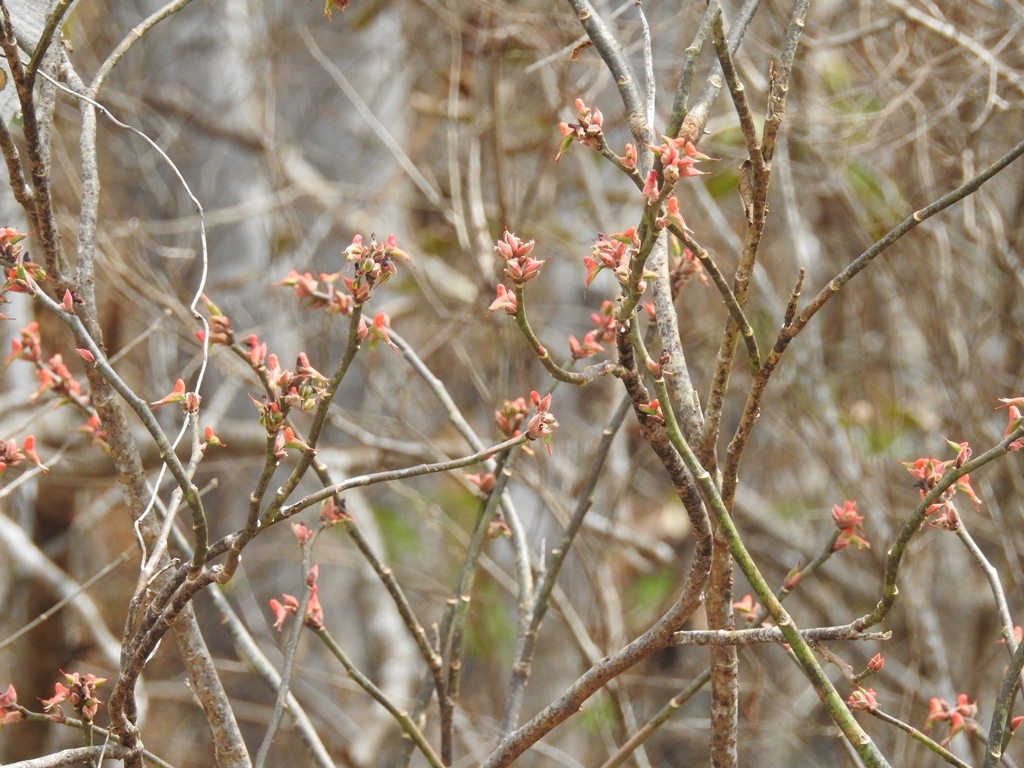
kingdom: Plantae
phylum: Tracheophyta
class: Magnoliopsida
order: Malpighiales
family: Euphorbiaceae
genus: Euphorbia
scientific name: Euphorbia calcarata
